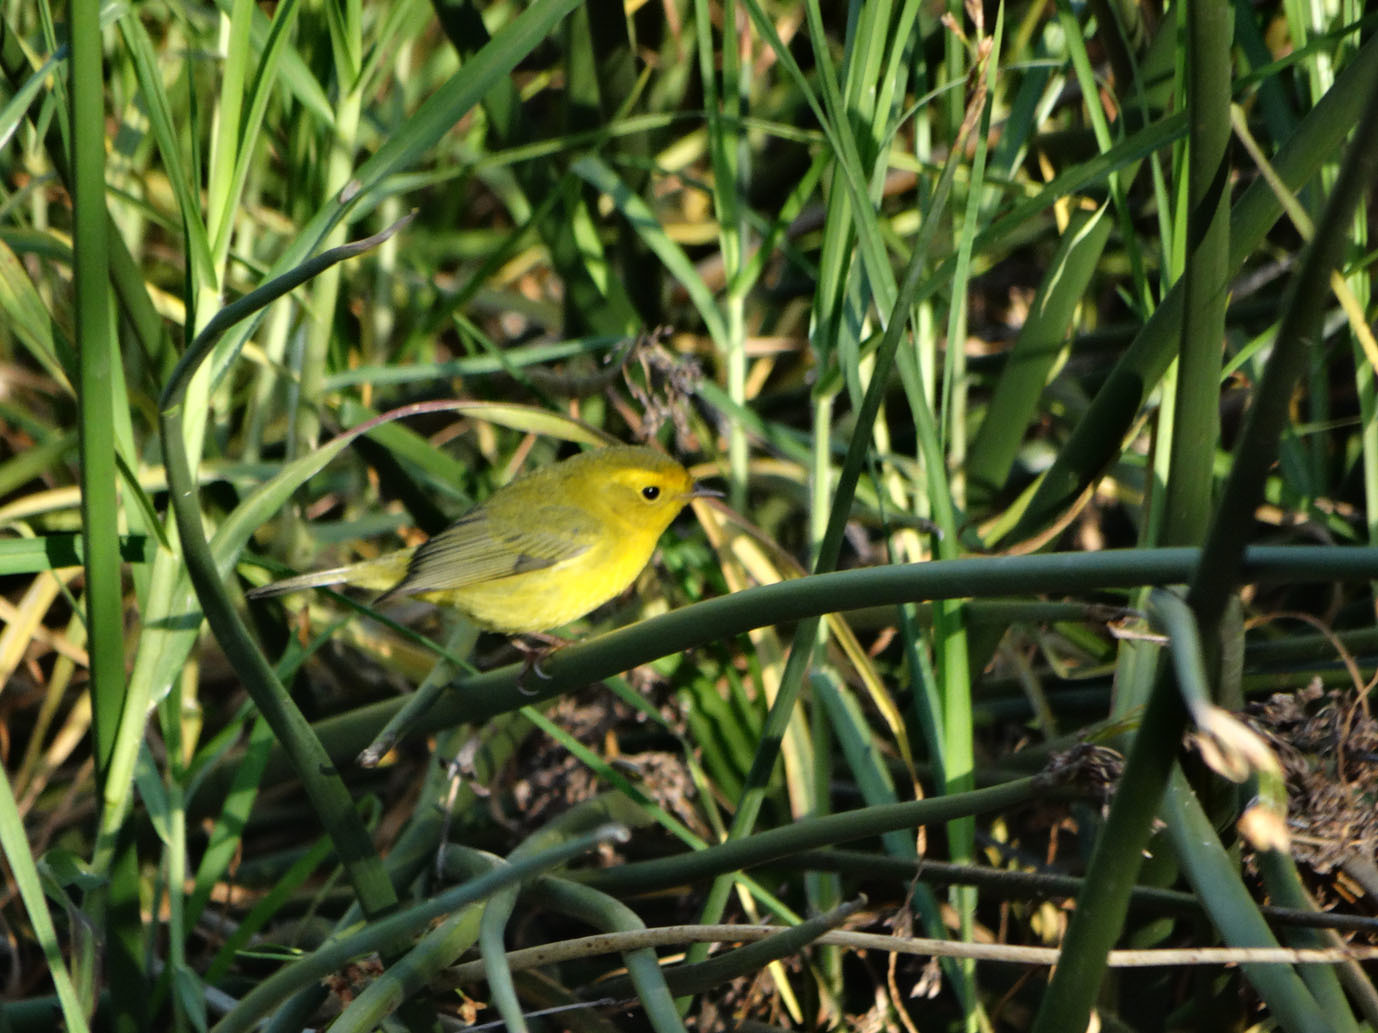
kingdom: Animalia
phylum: Chordata
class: Aves
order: Passeriformes
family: Parulidae
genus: Cardellina
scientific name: Cardellina pusilla
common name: Wilson's warbler
